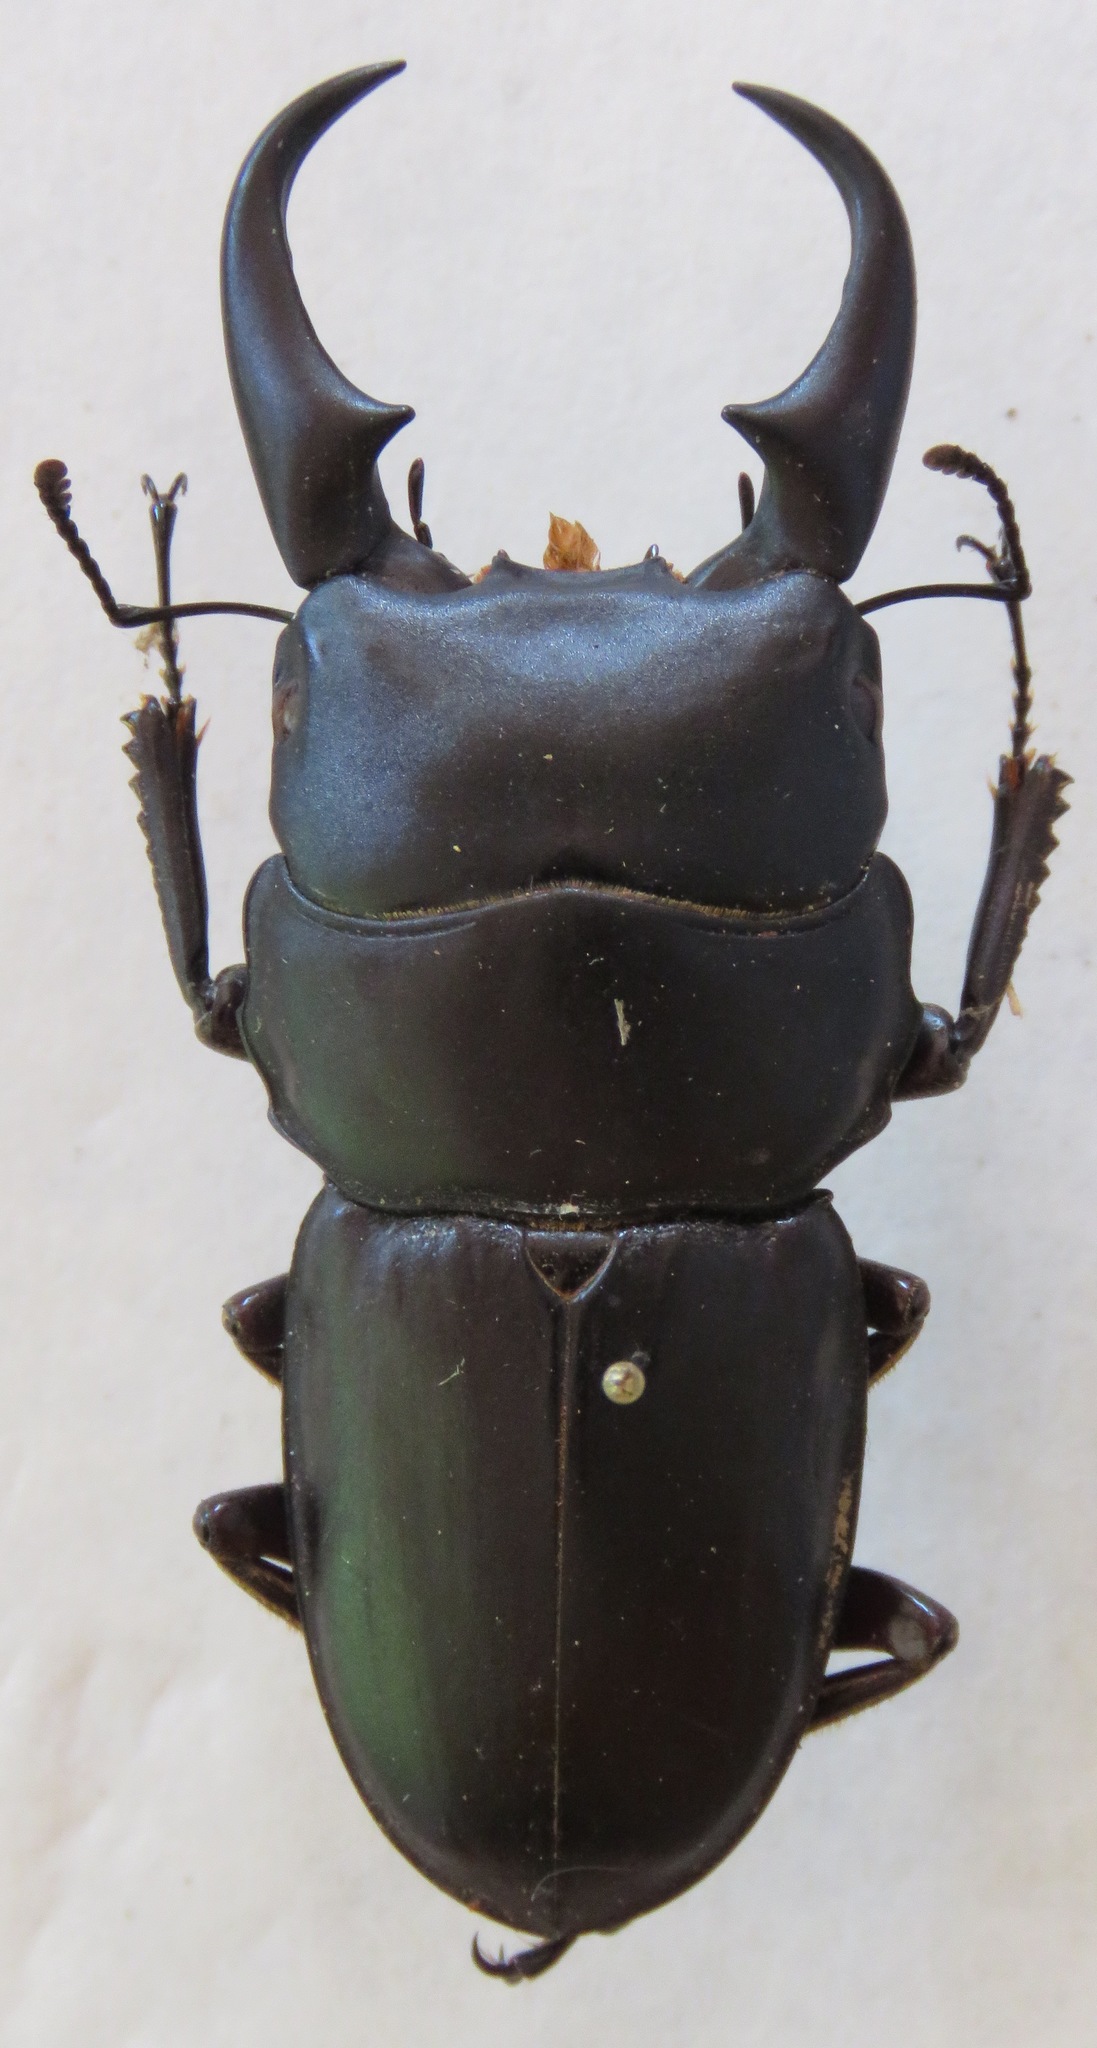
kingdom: Animalia
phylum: Arthropoda
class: Insecta
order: Coleoptera
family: Lucanidae
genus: Dorcus
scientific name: Dorcus meeki
